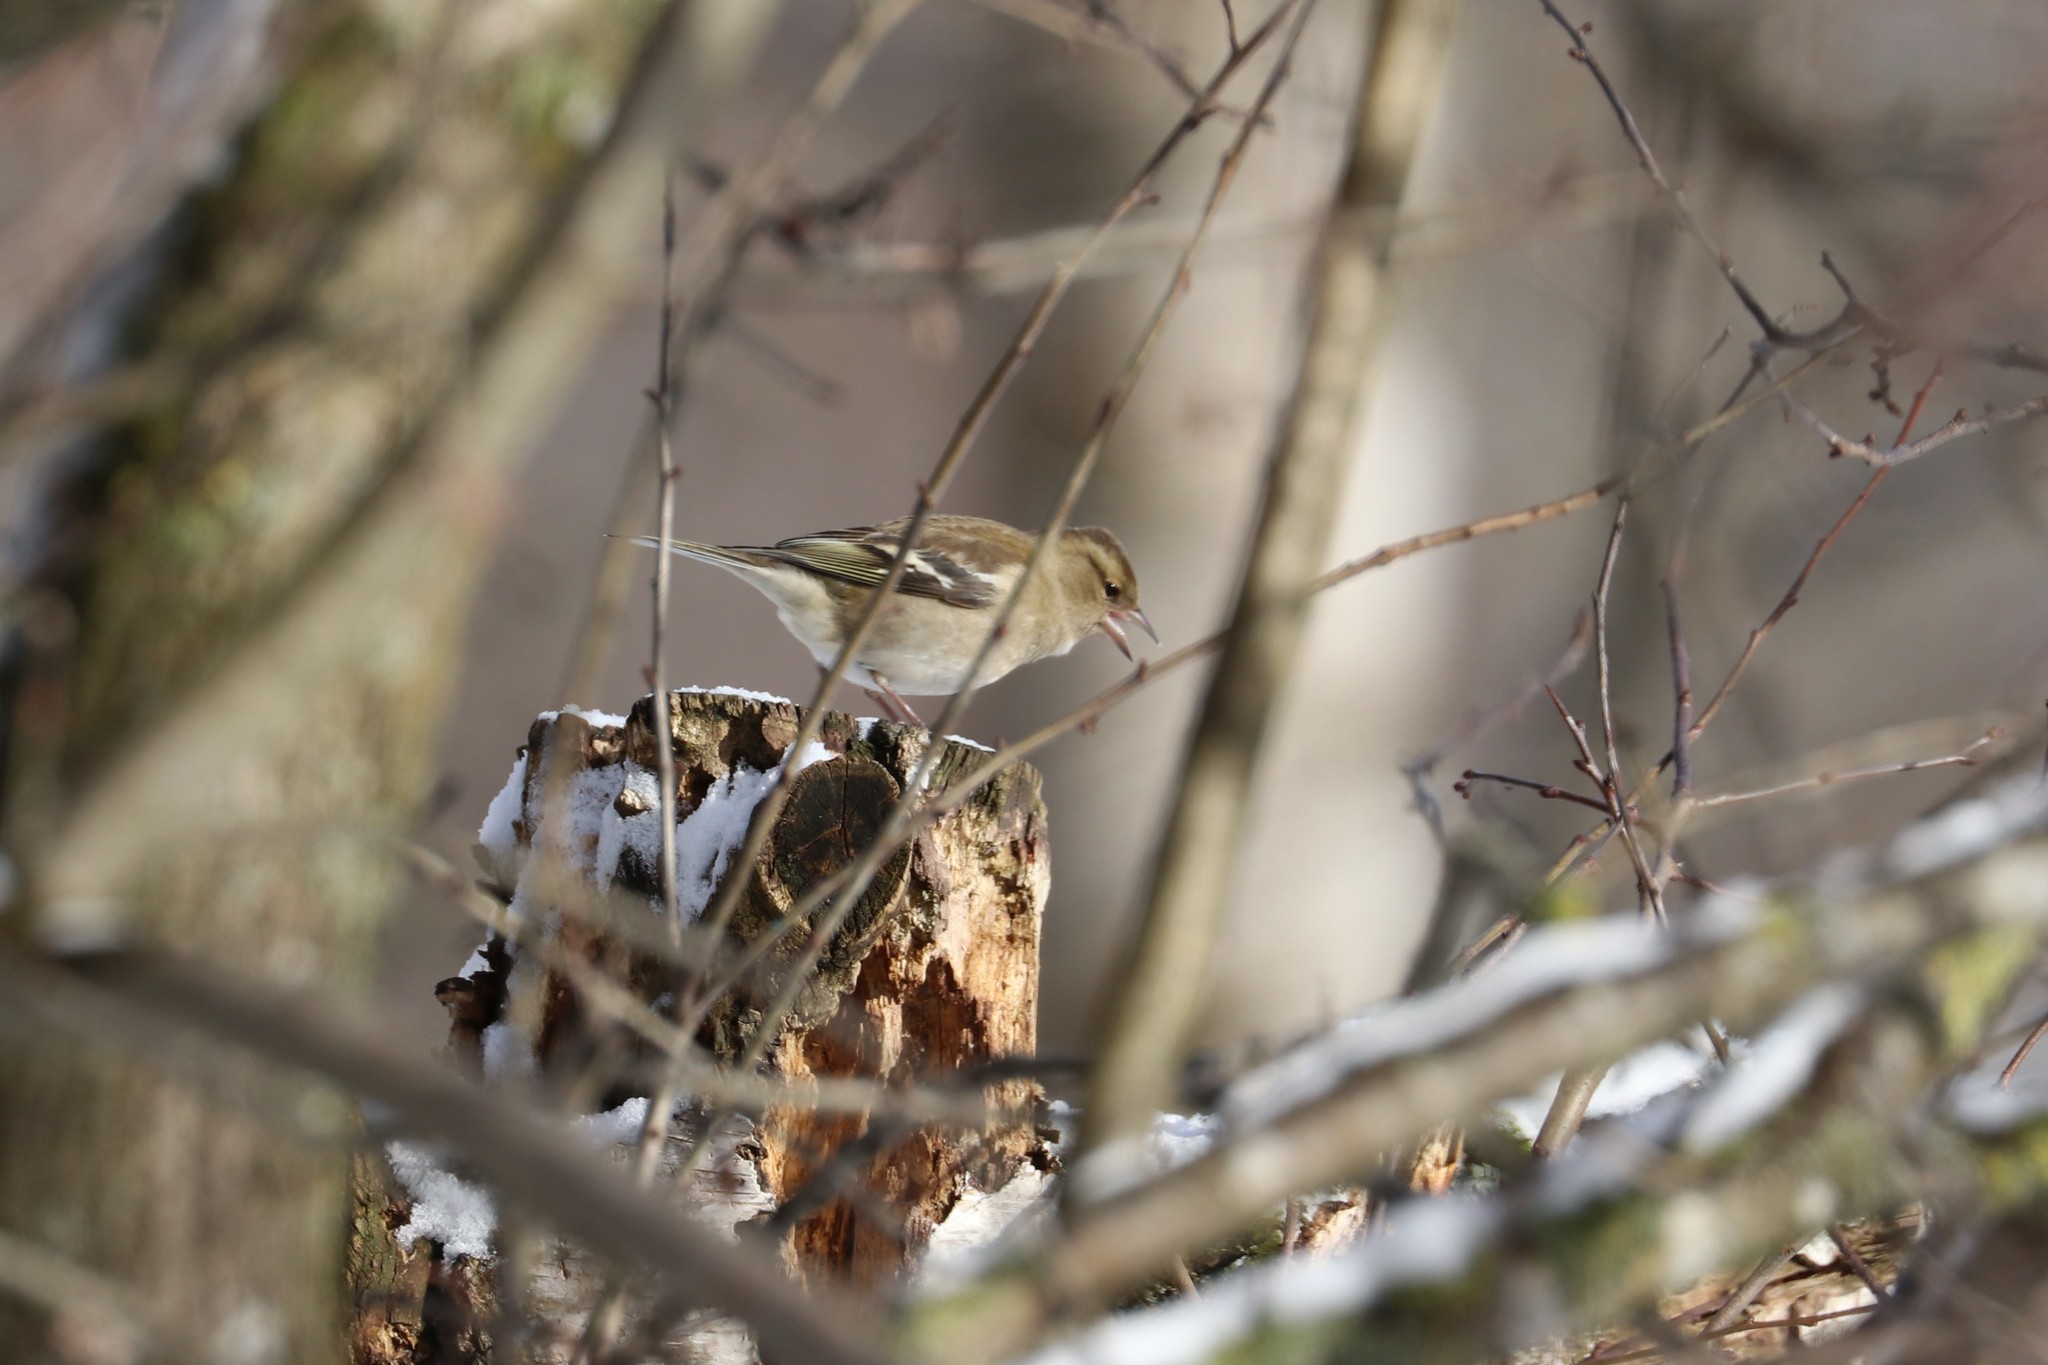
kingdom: Animalia
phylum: Chordata
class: Aves
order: Passeriformes
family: Fringillidae
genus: Fringilla
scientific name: Fringilla coelebs
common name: Common chaffinch
